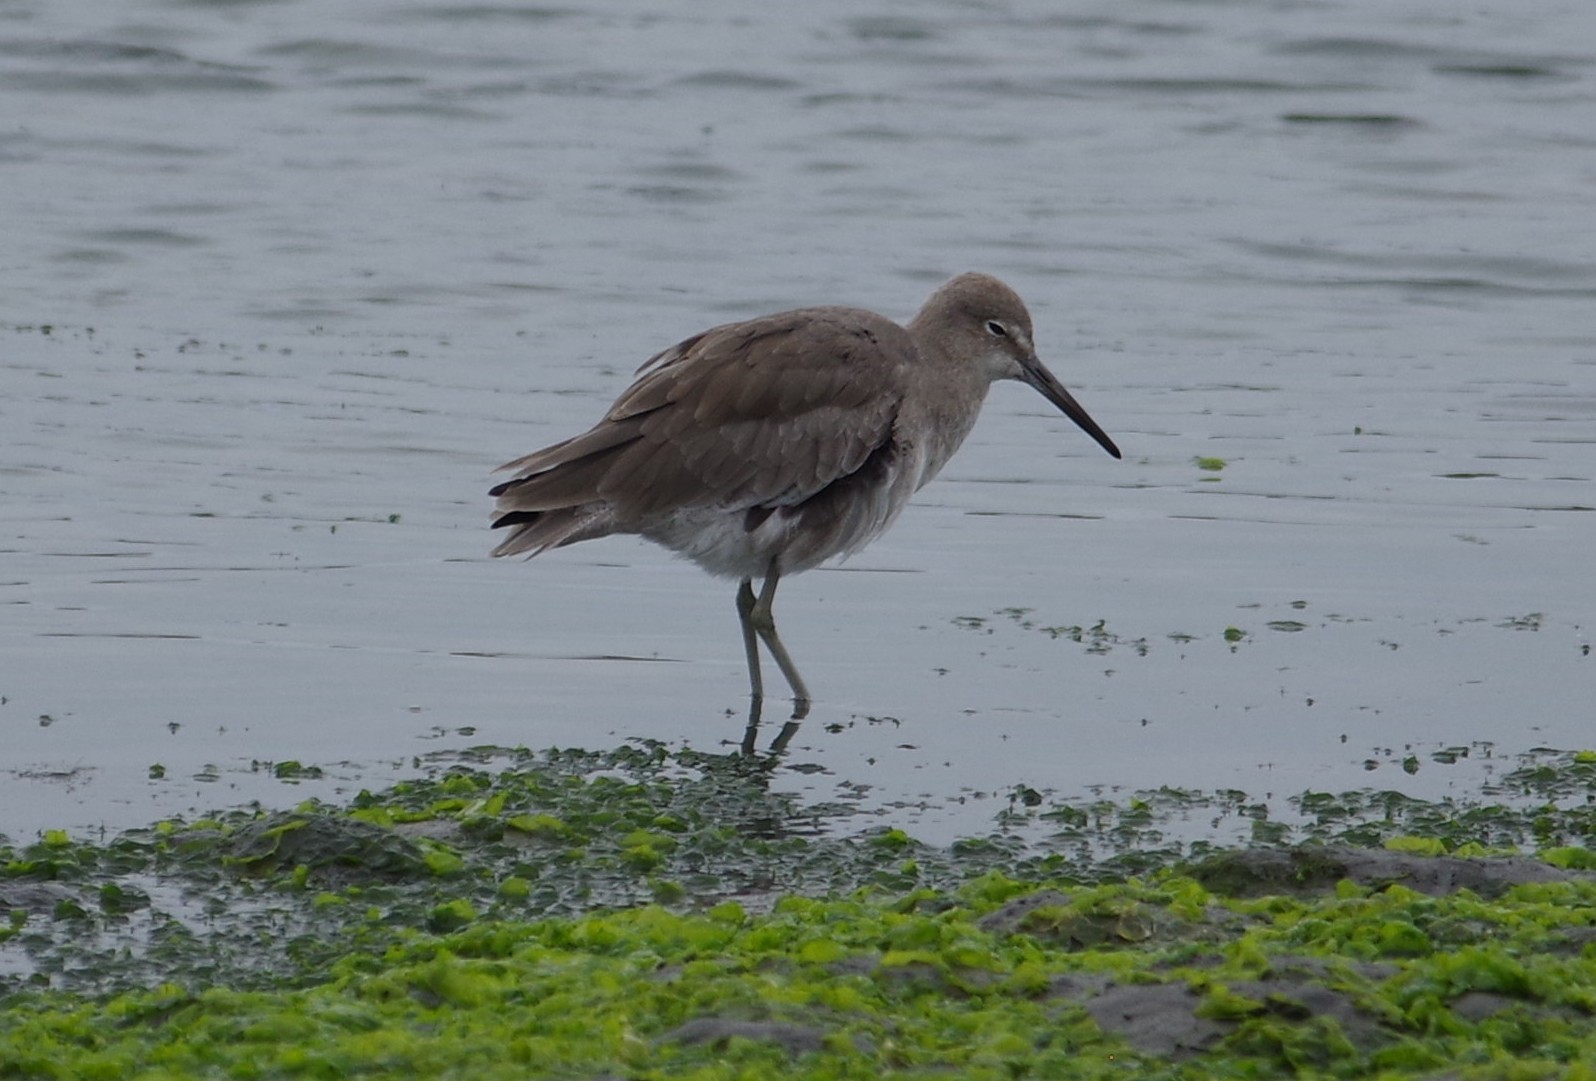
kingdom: Animalia
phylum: Chordata
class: Aves
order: Charadriiformes
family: Scolopacidae
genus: Tringa
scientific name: Tringa semipalmata
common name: Willet
